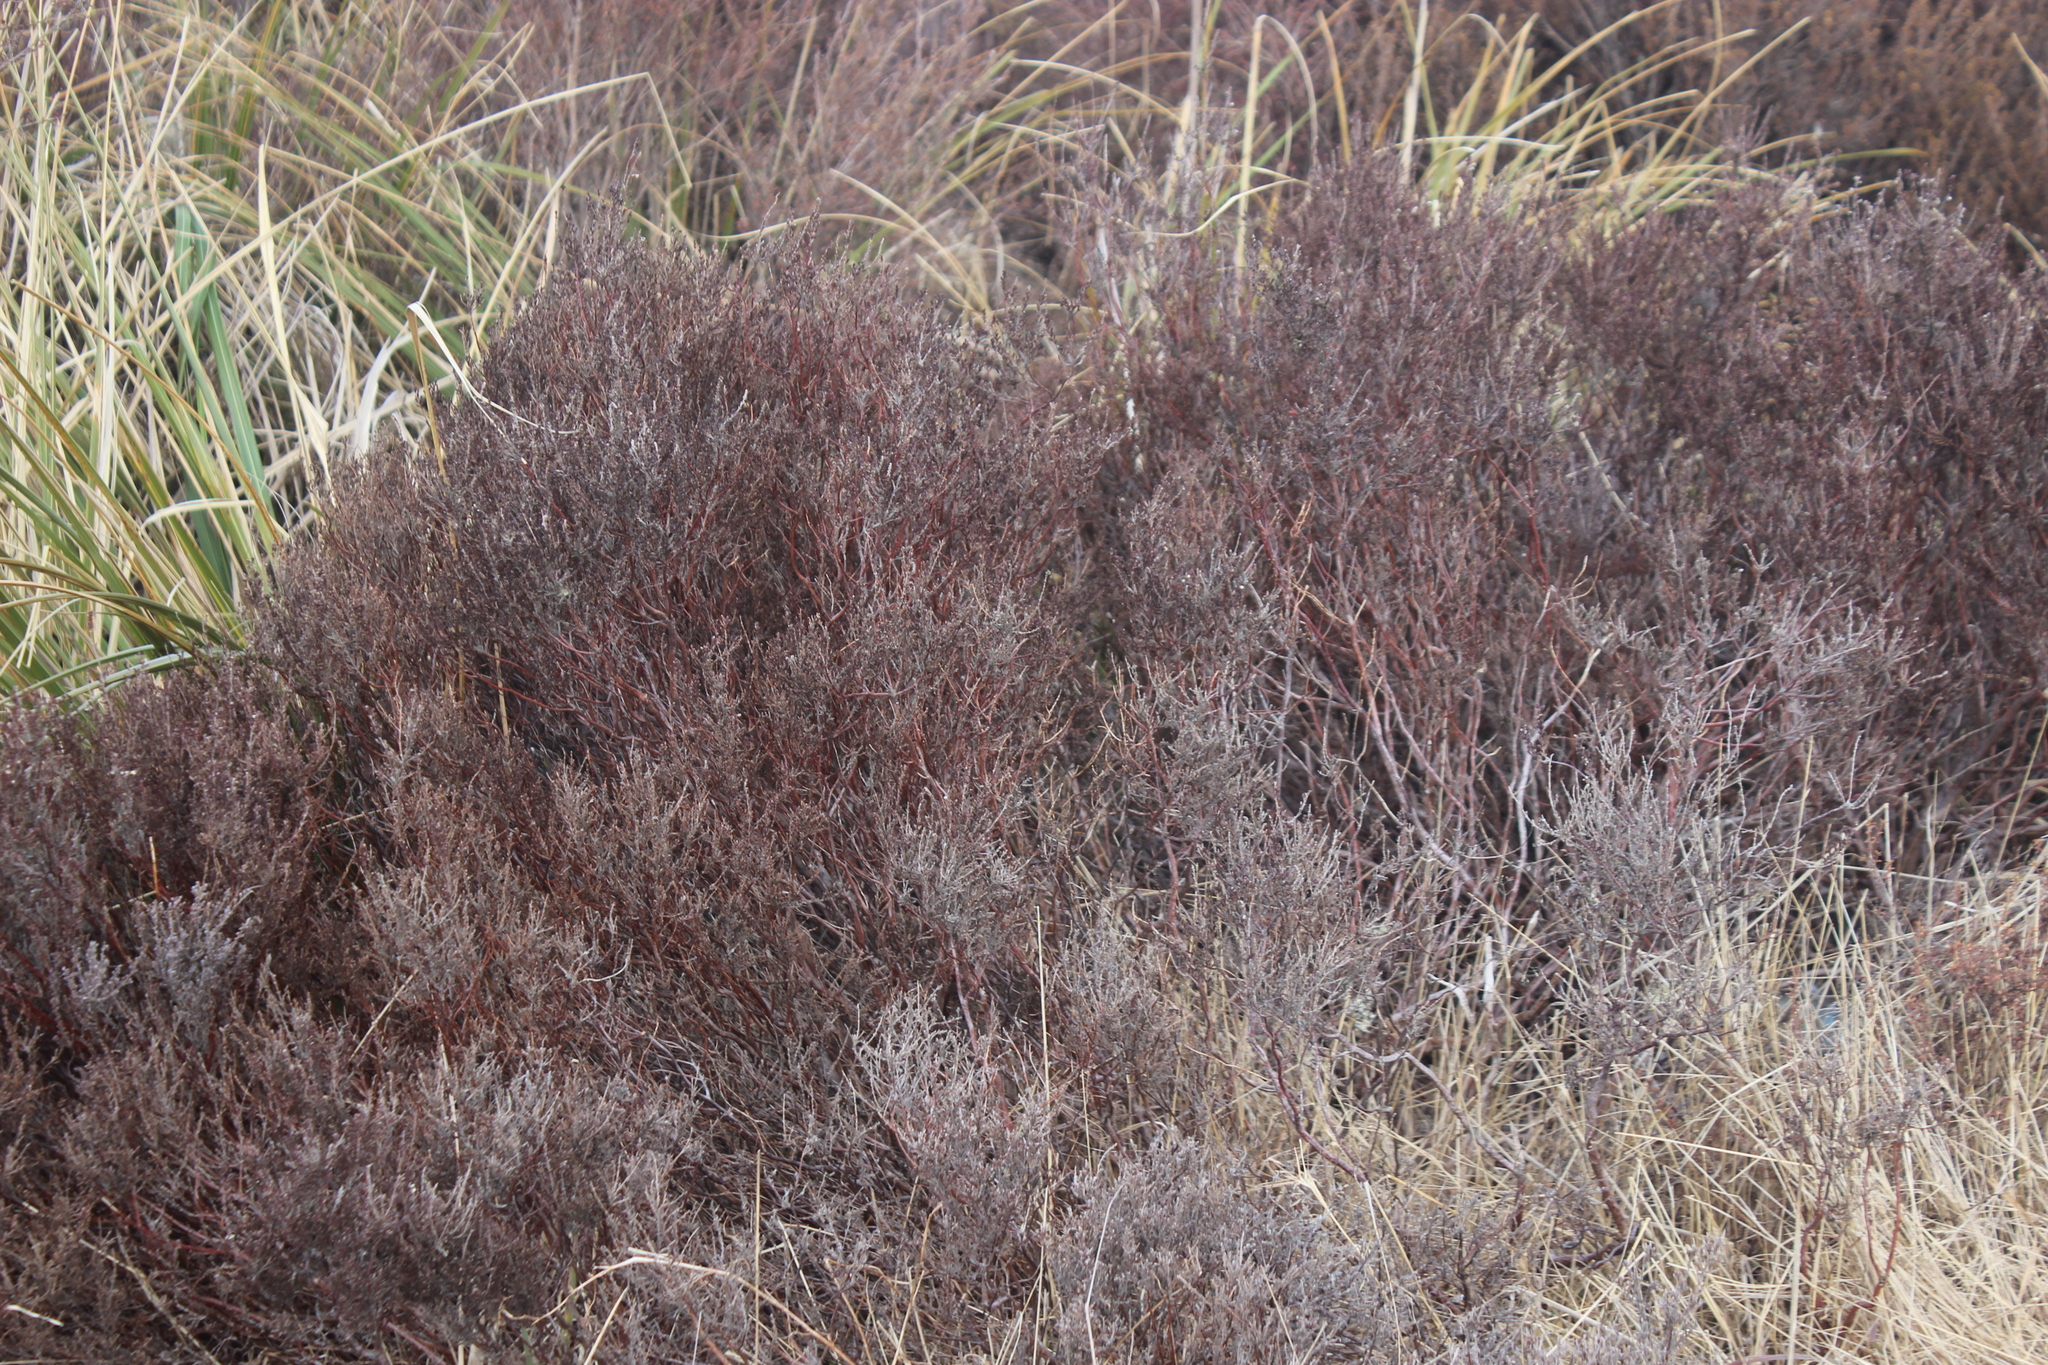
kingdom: Plantae
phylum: Tracheophyta
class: Magnoliopsida
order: Ericales
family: Ericaceae
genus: Calluna
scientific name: Calluna vulgaris
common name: Heather
